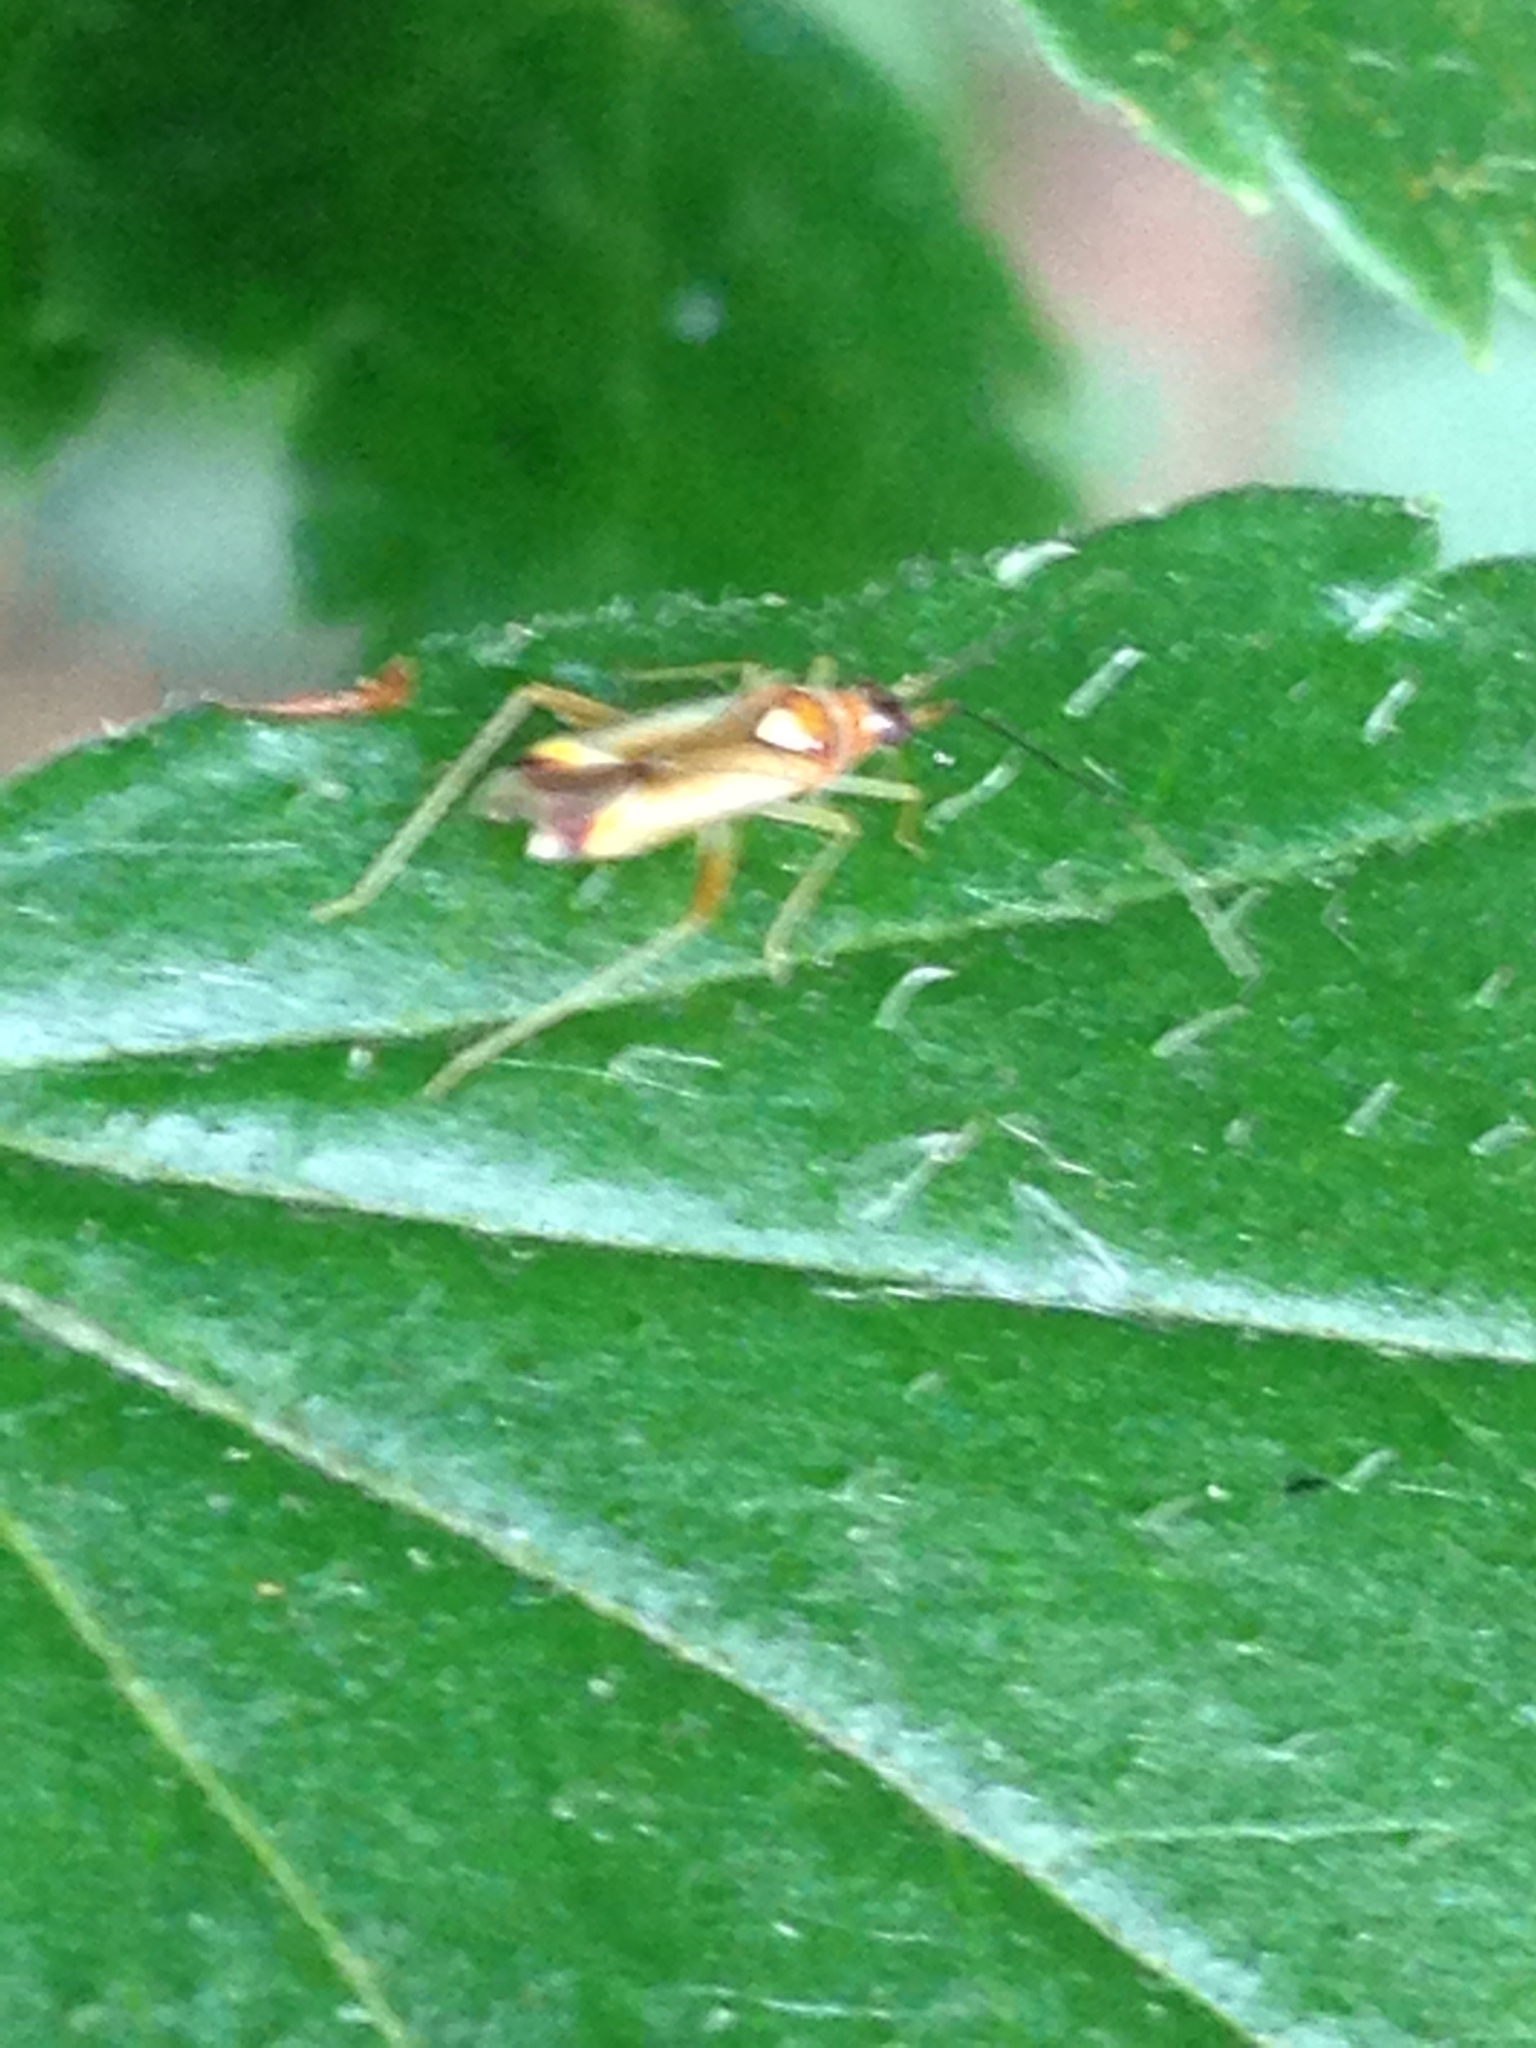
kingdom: Animalia
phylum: Arthropoda
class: Insecta
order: Hemiptera
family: Miridae
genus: Campyloneura
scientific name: Campyloneura virgula
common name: Predatory bug
